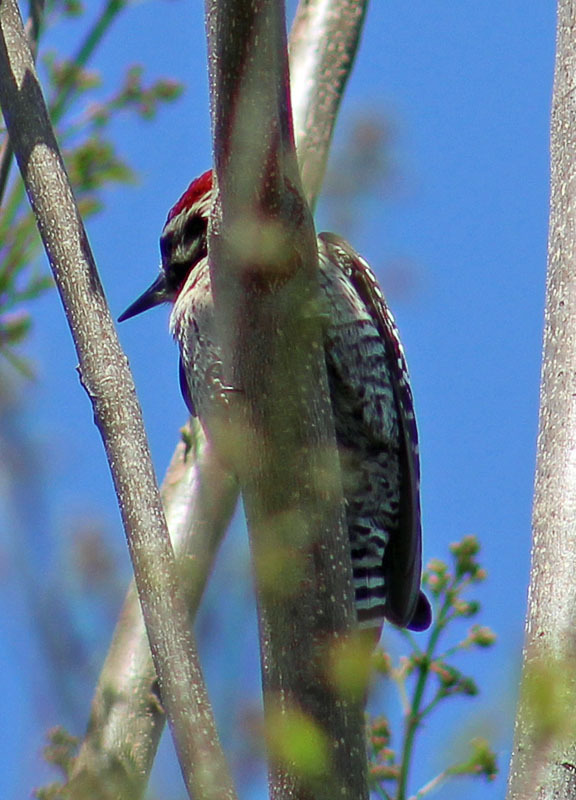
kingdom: Animalia
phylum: Chordata
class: Aves
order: Piciformes
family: Picidae
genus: Dryobates
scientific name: Dryobates scalaris
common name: Ladder-backed woodpecker
